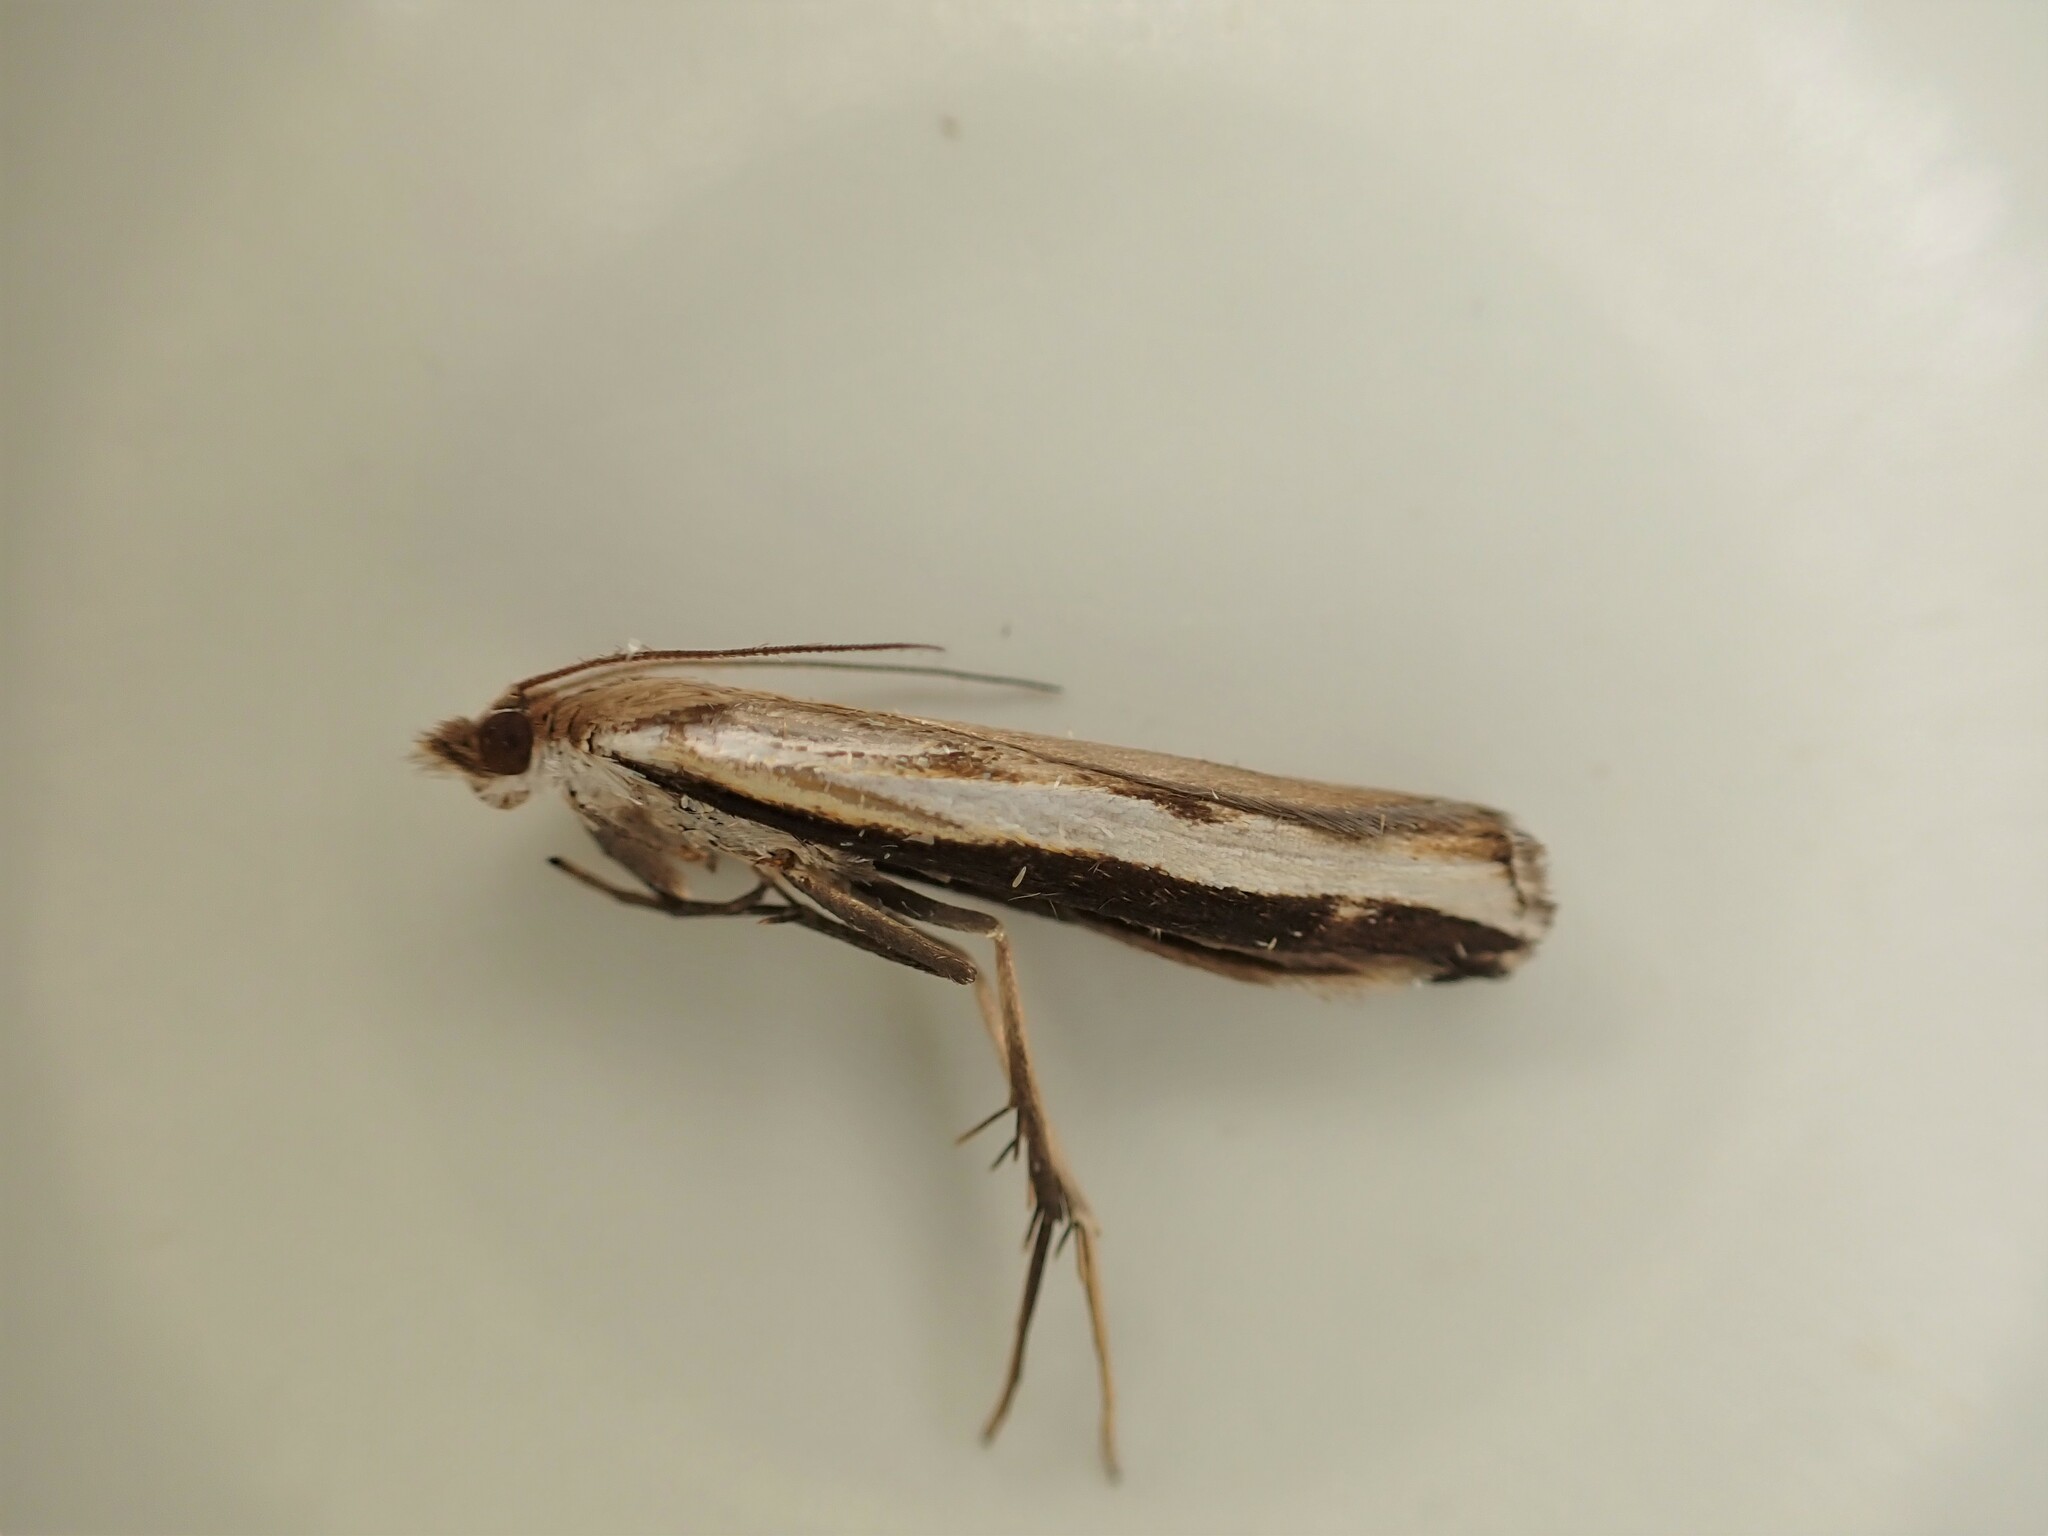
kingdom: Animalia
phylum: Arthropoda
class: Insecta
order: Lepidoptera
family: Crambidae
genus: Orocrambus
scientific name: Orocrambus flexuosellus
